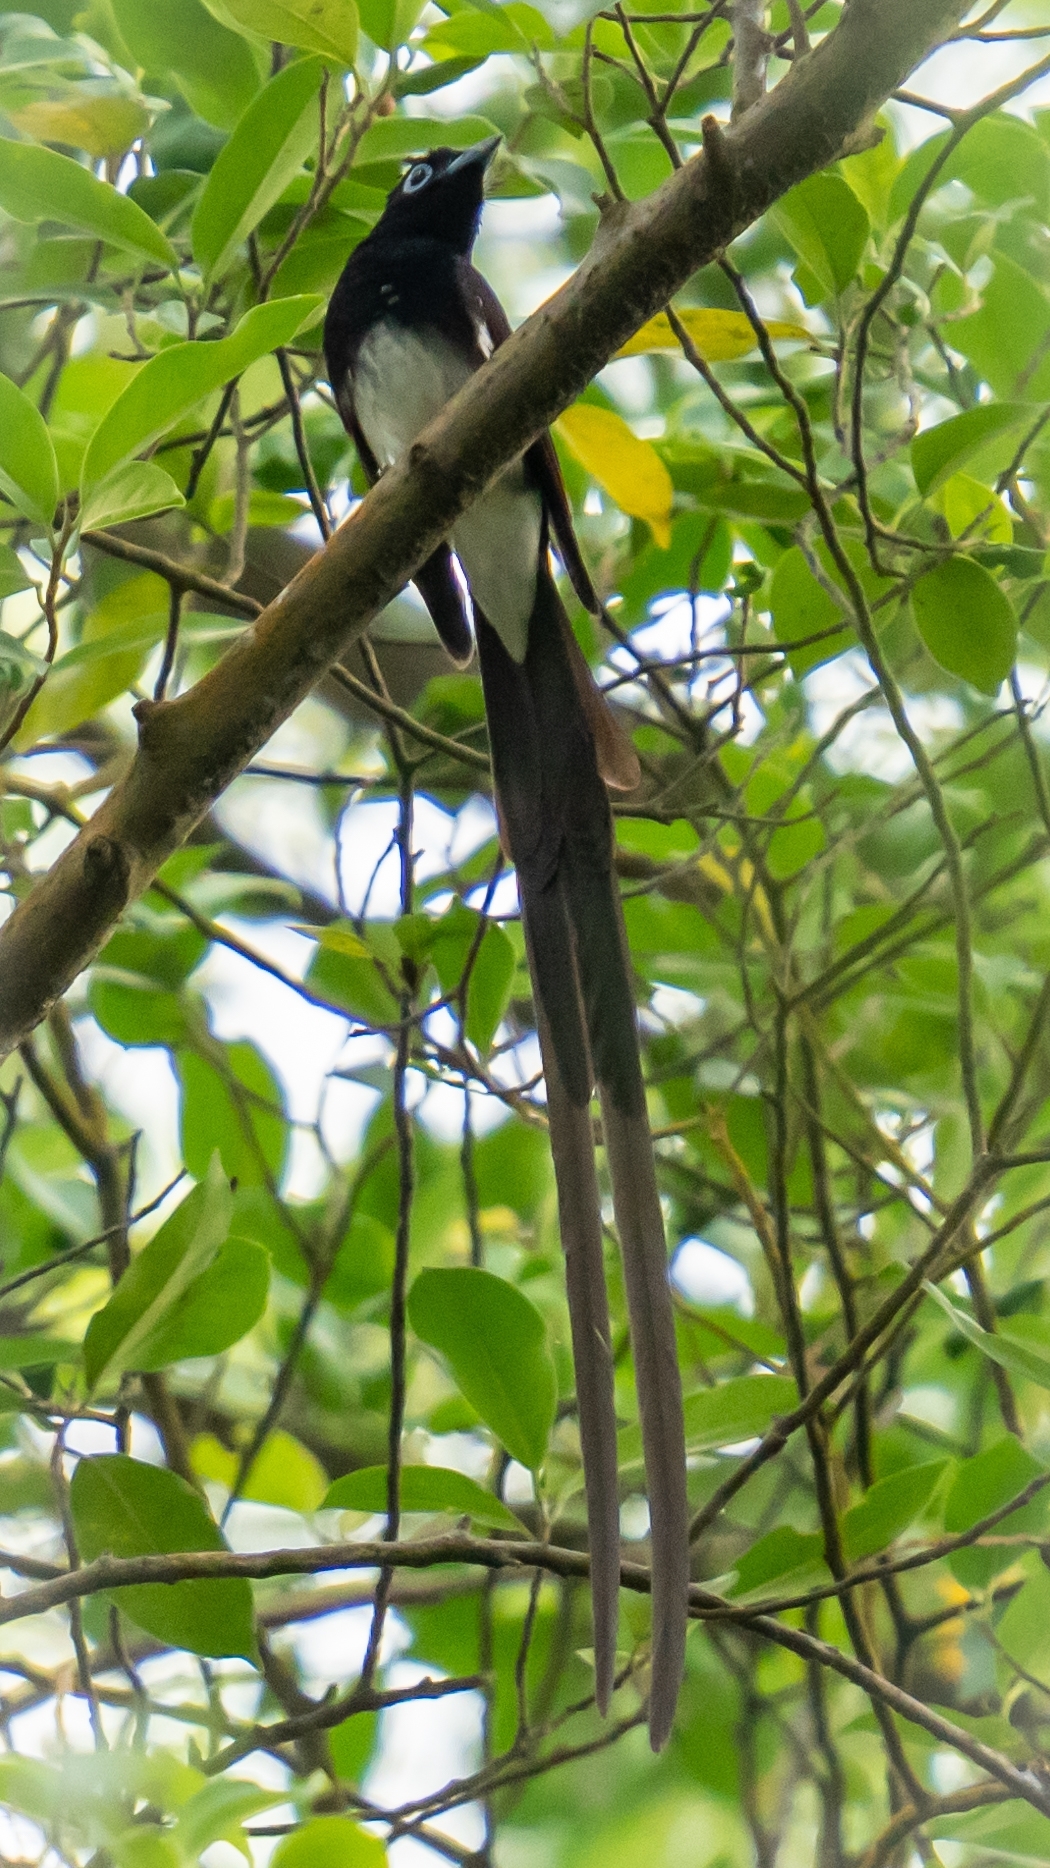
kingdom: Animalia
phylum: Chordata
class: Aves
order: Passeriformes
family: Monarchidae
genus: Terpsiphone
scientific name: Terpsiphone atrocaudata
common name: Japanese paradise flycatcher
